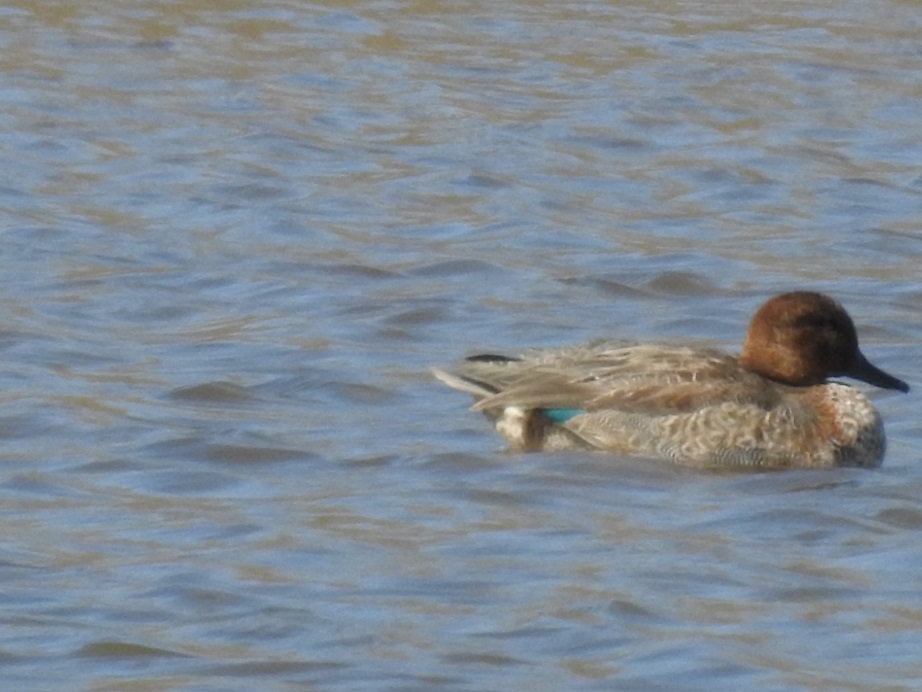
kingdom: Animalia
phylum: Chordata
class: Aves
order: Anseriformes
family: Anatidae
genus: Anas
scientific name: Anas crecca
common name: Eurasian teal
